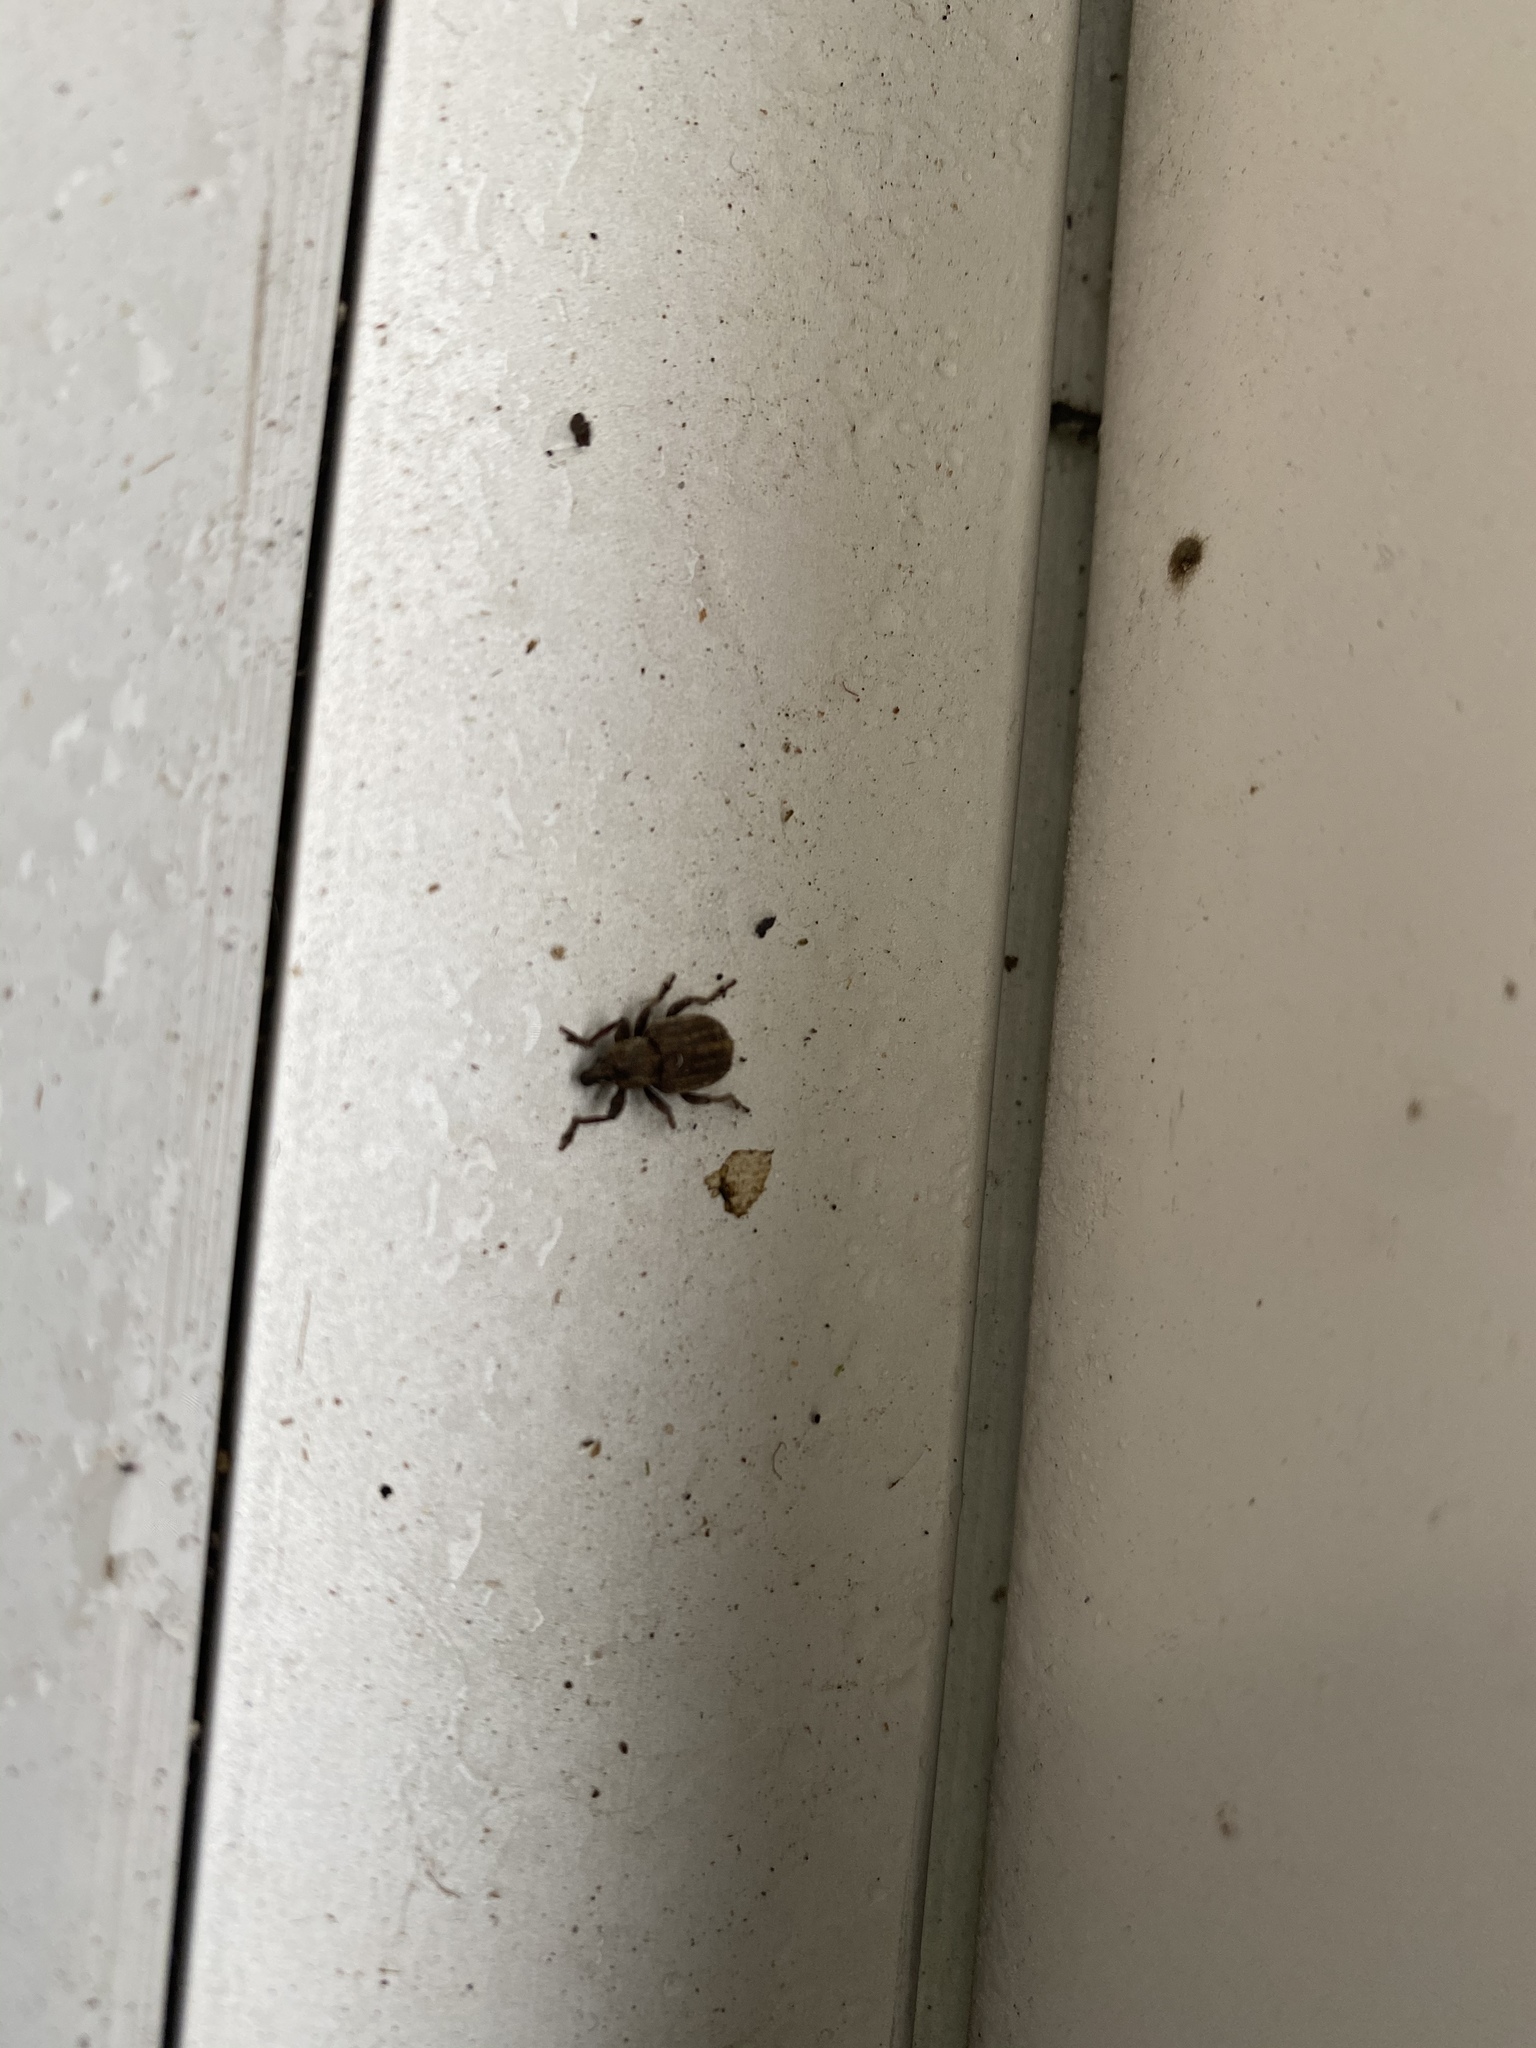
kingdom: Animalia
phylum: Arthropoda
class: Insecta
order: Coleoptera
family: Curculionidae
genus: Brachypera
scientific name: Brachypera zoilus
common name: Clover leaf weevil
